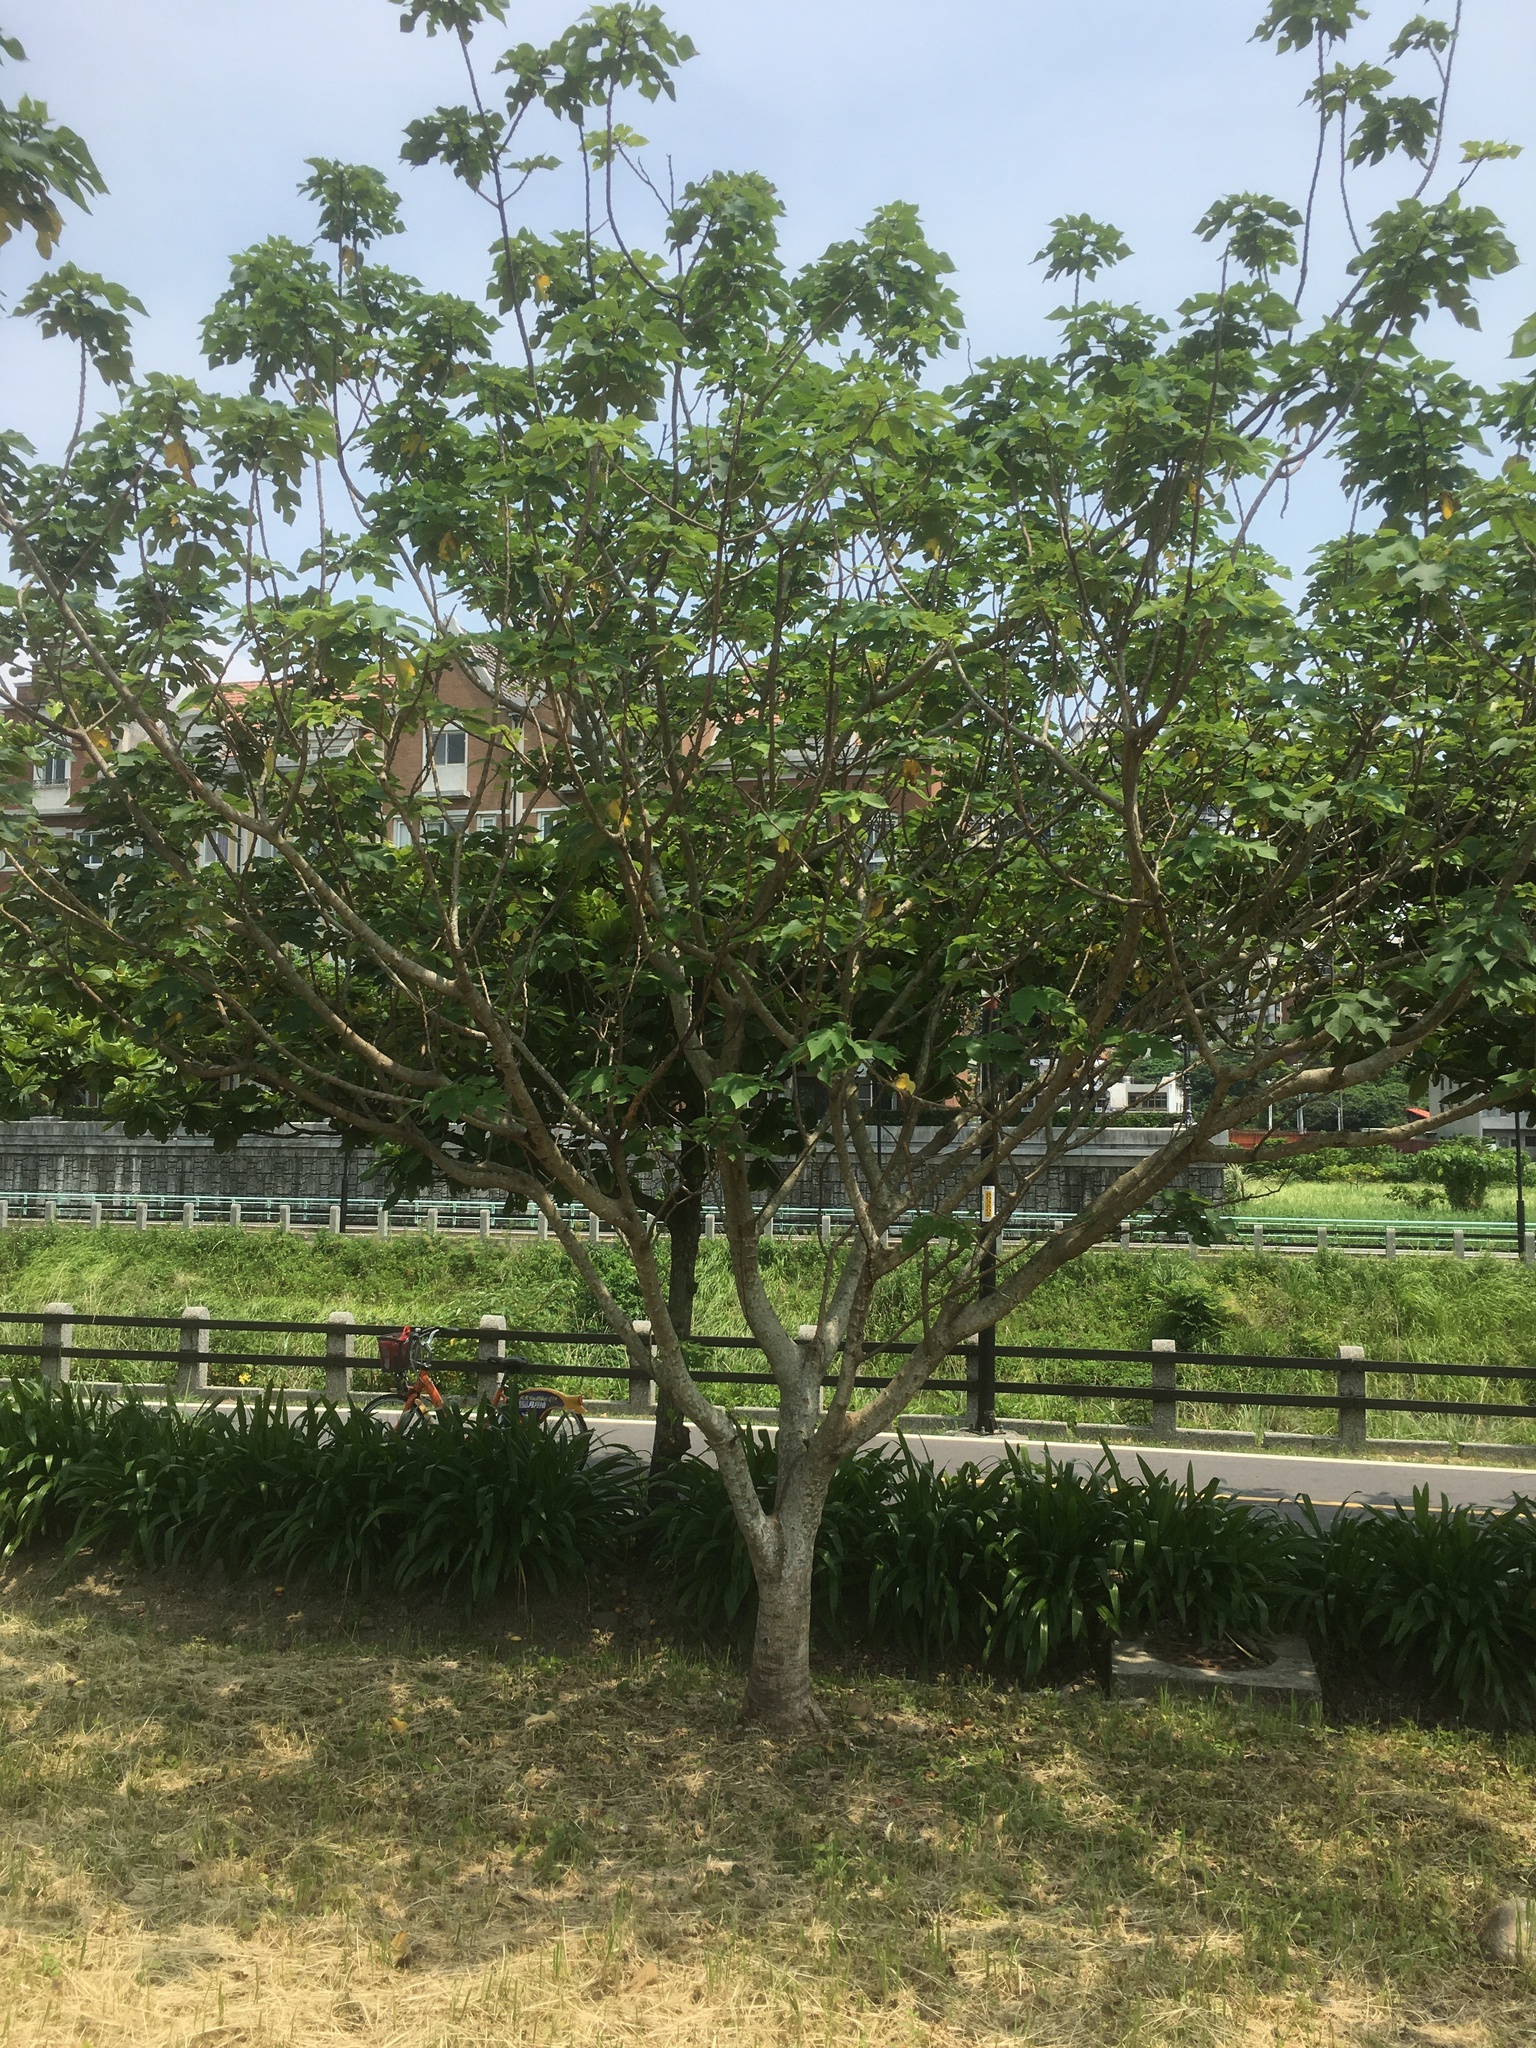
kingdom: Plantae
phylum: Tracheophyta
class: Magnoliopsida
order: Rosales
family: Moraceae
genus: Broussonetia
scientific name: Broussonetia papyrifera
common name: Paper mulberry
